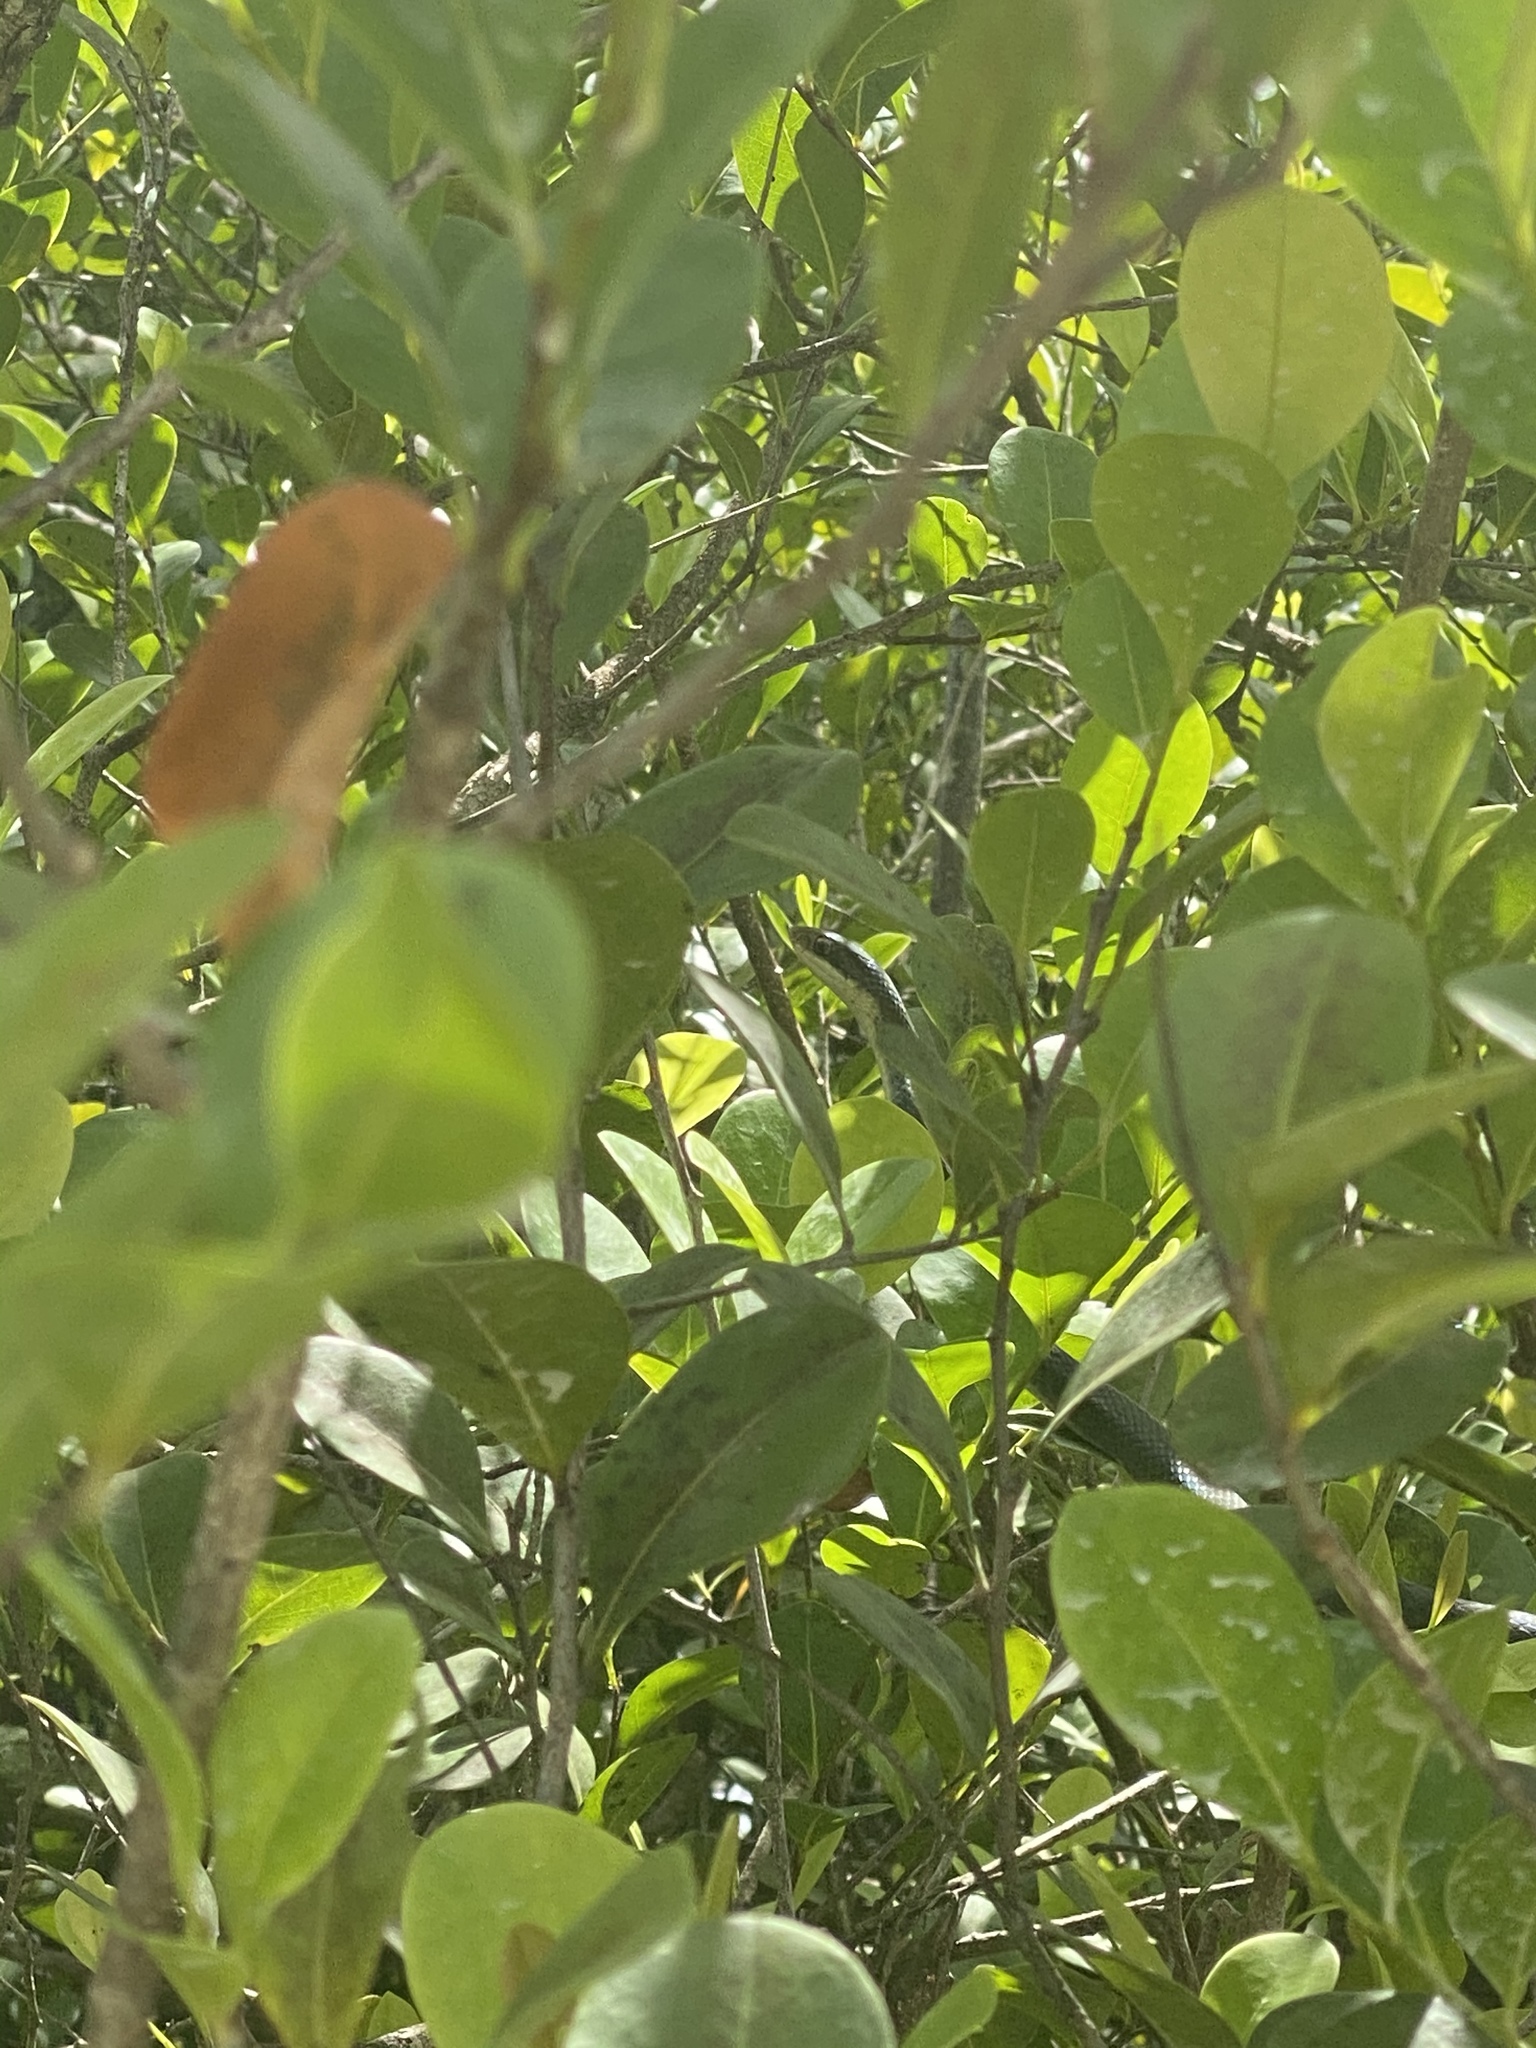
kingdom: Animalia
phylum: Chordata
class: Squamata
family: Colubridae
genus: Coluber
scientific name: Coluber constrictor
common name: Eastern racer
